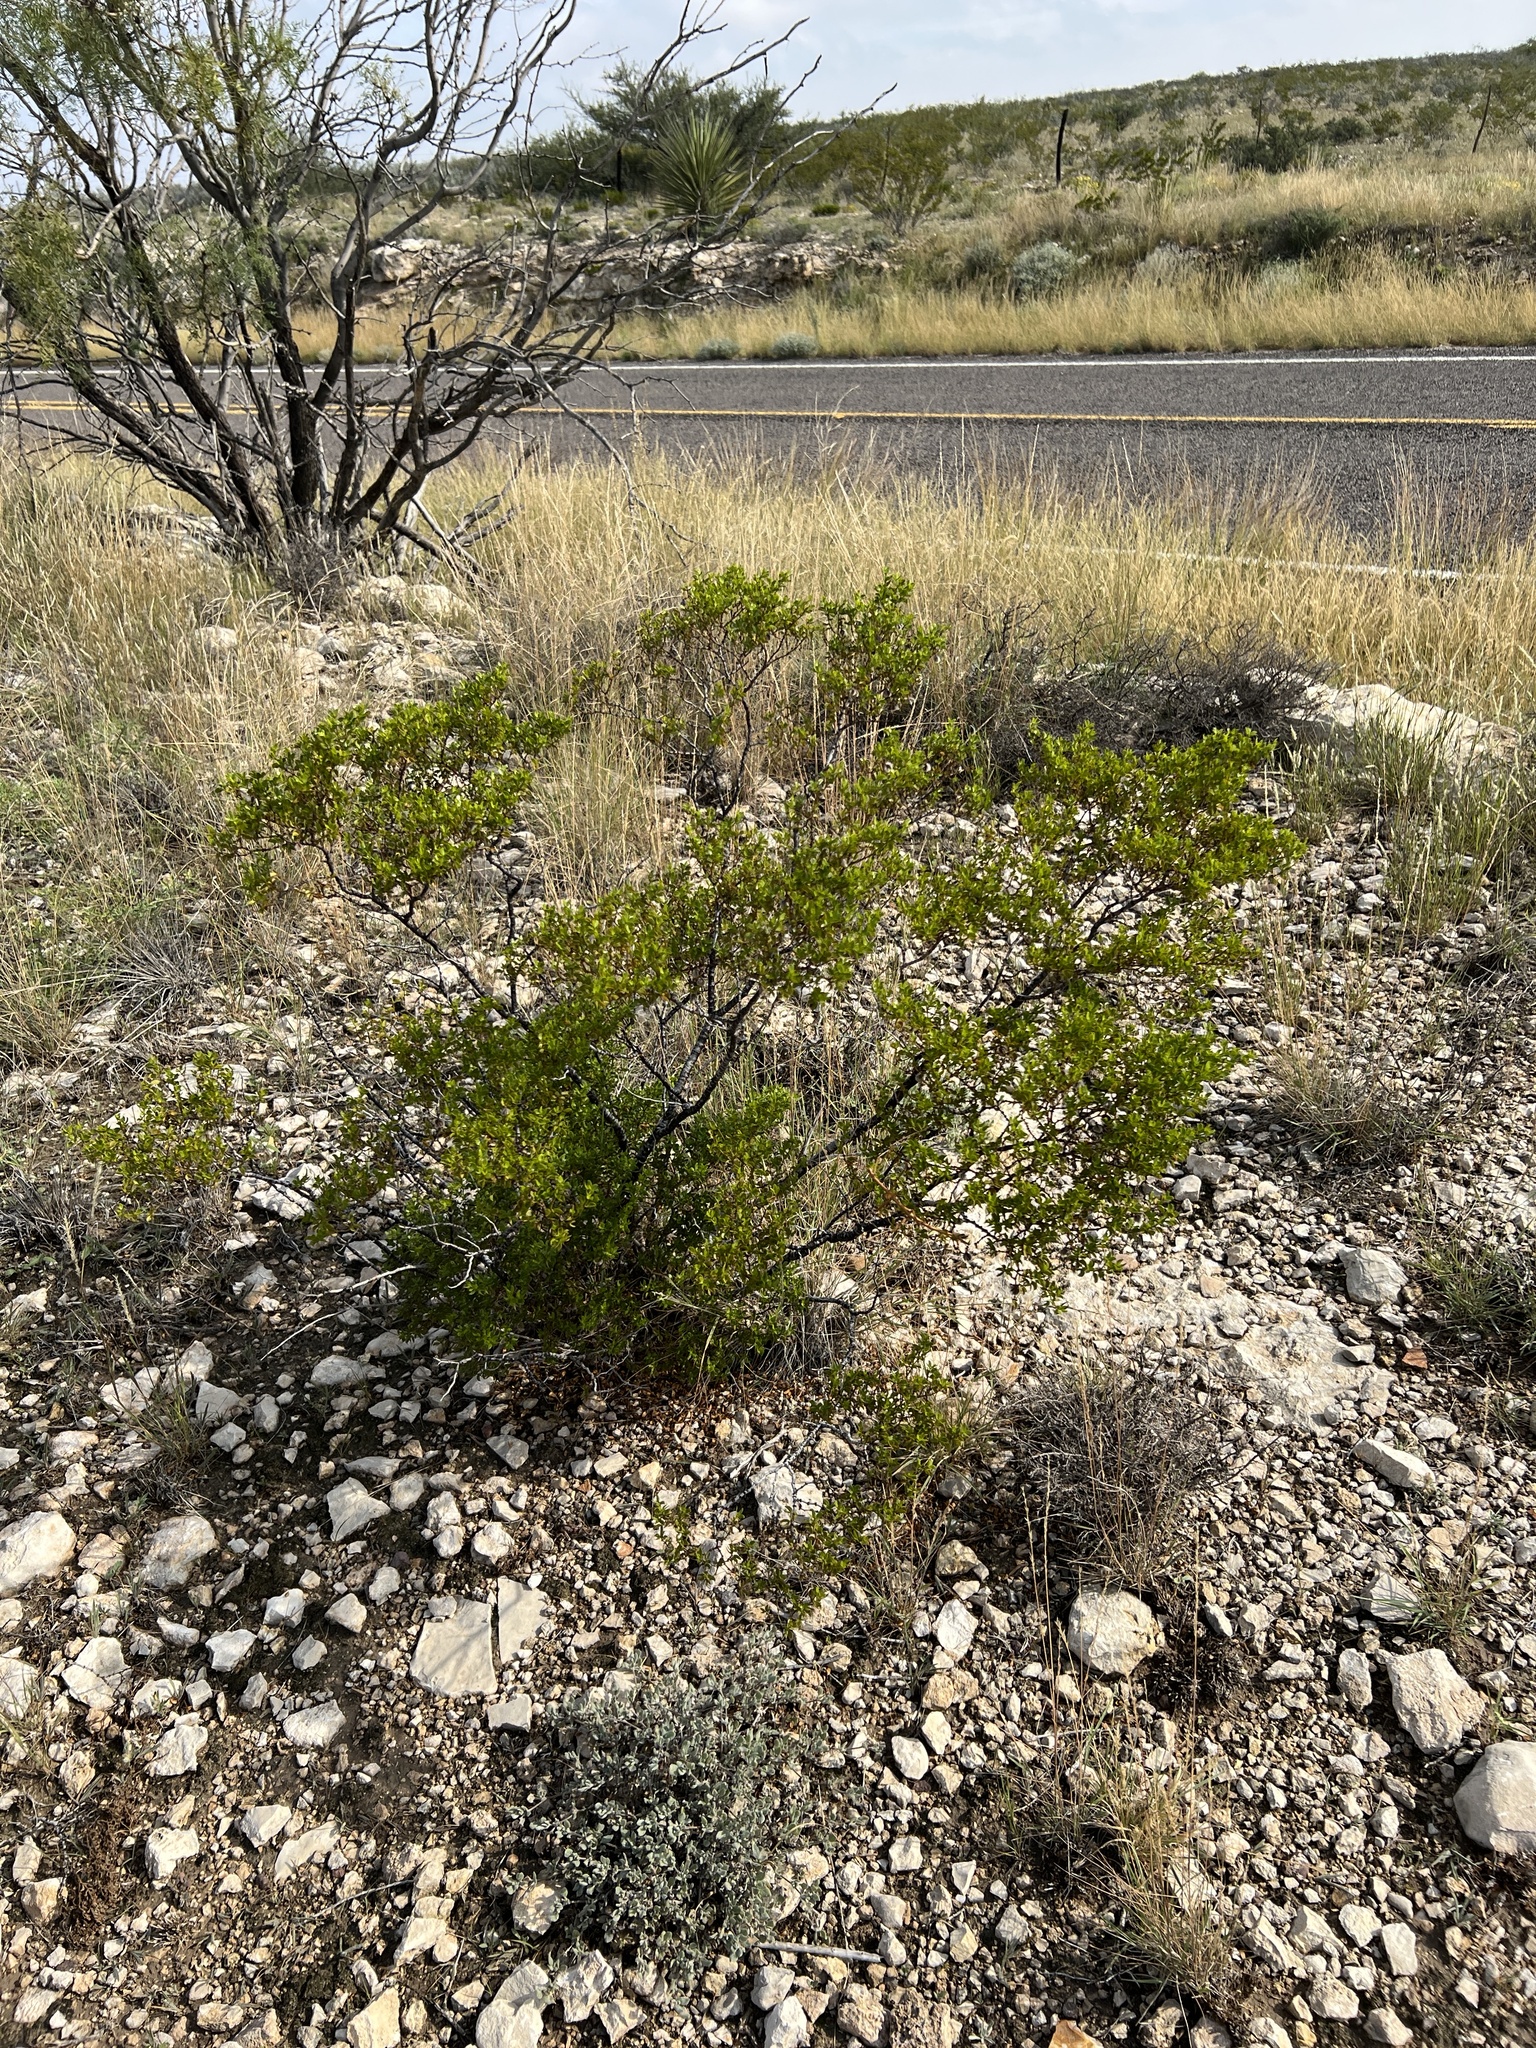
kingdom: Plantae
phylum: Tracheophyta
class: Magnoliopsida
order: Zygophyllales
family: Zygophyllaceae
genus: Larrea
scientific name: Larrea tridentata
